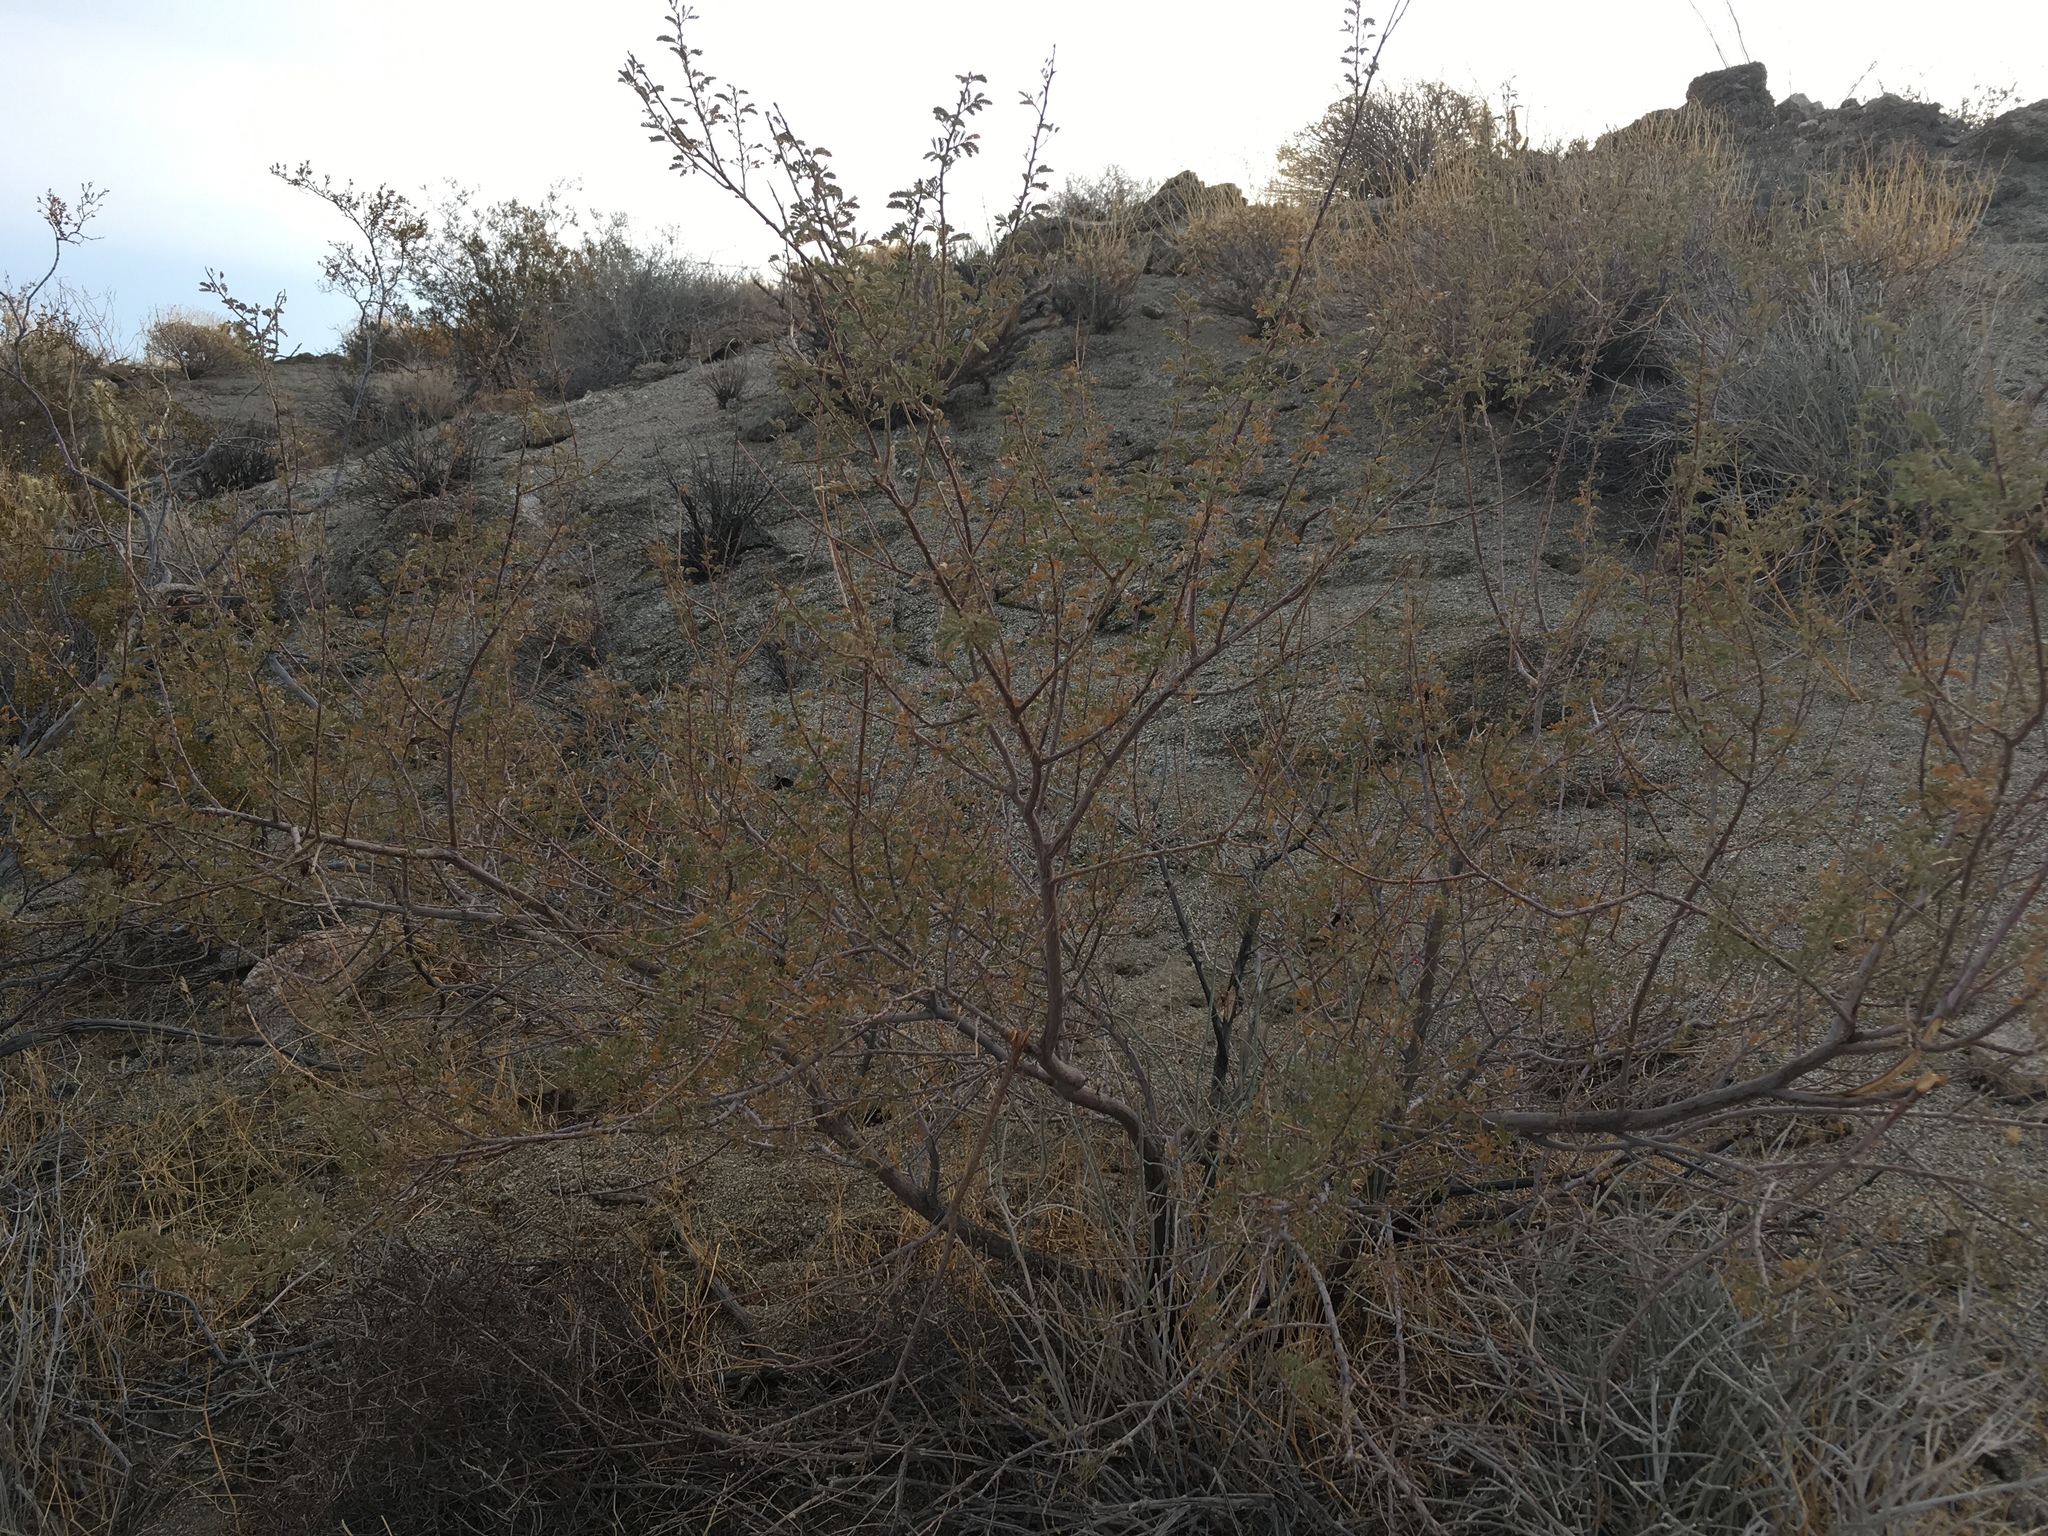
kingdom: Plantae
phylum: Tracheophyta
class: Magnoliopsida
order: Fabales
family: Fabaceae
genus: Senegalia
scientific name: Senegalia greggii
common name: Texas-mimosa
